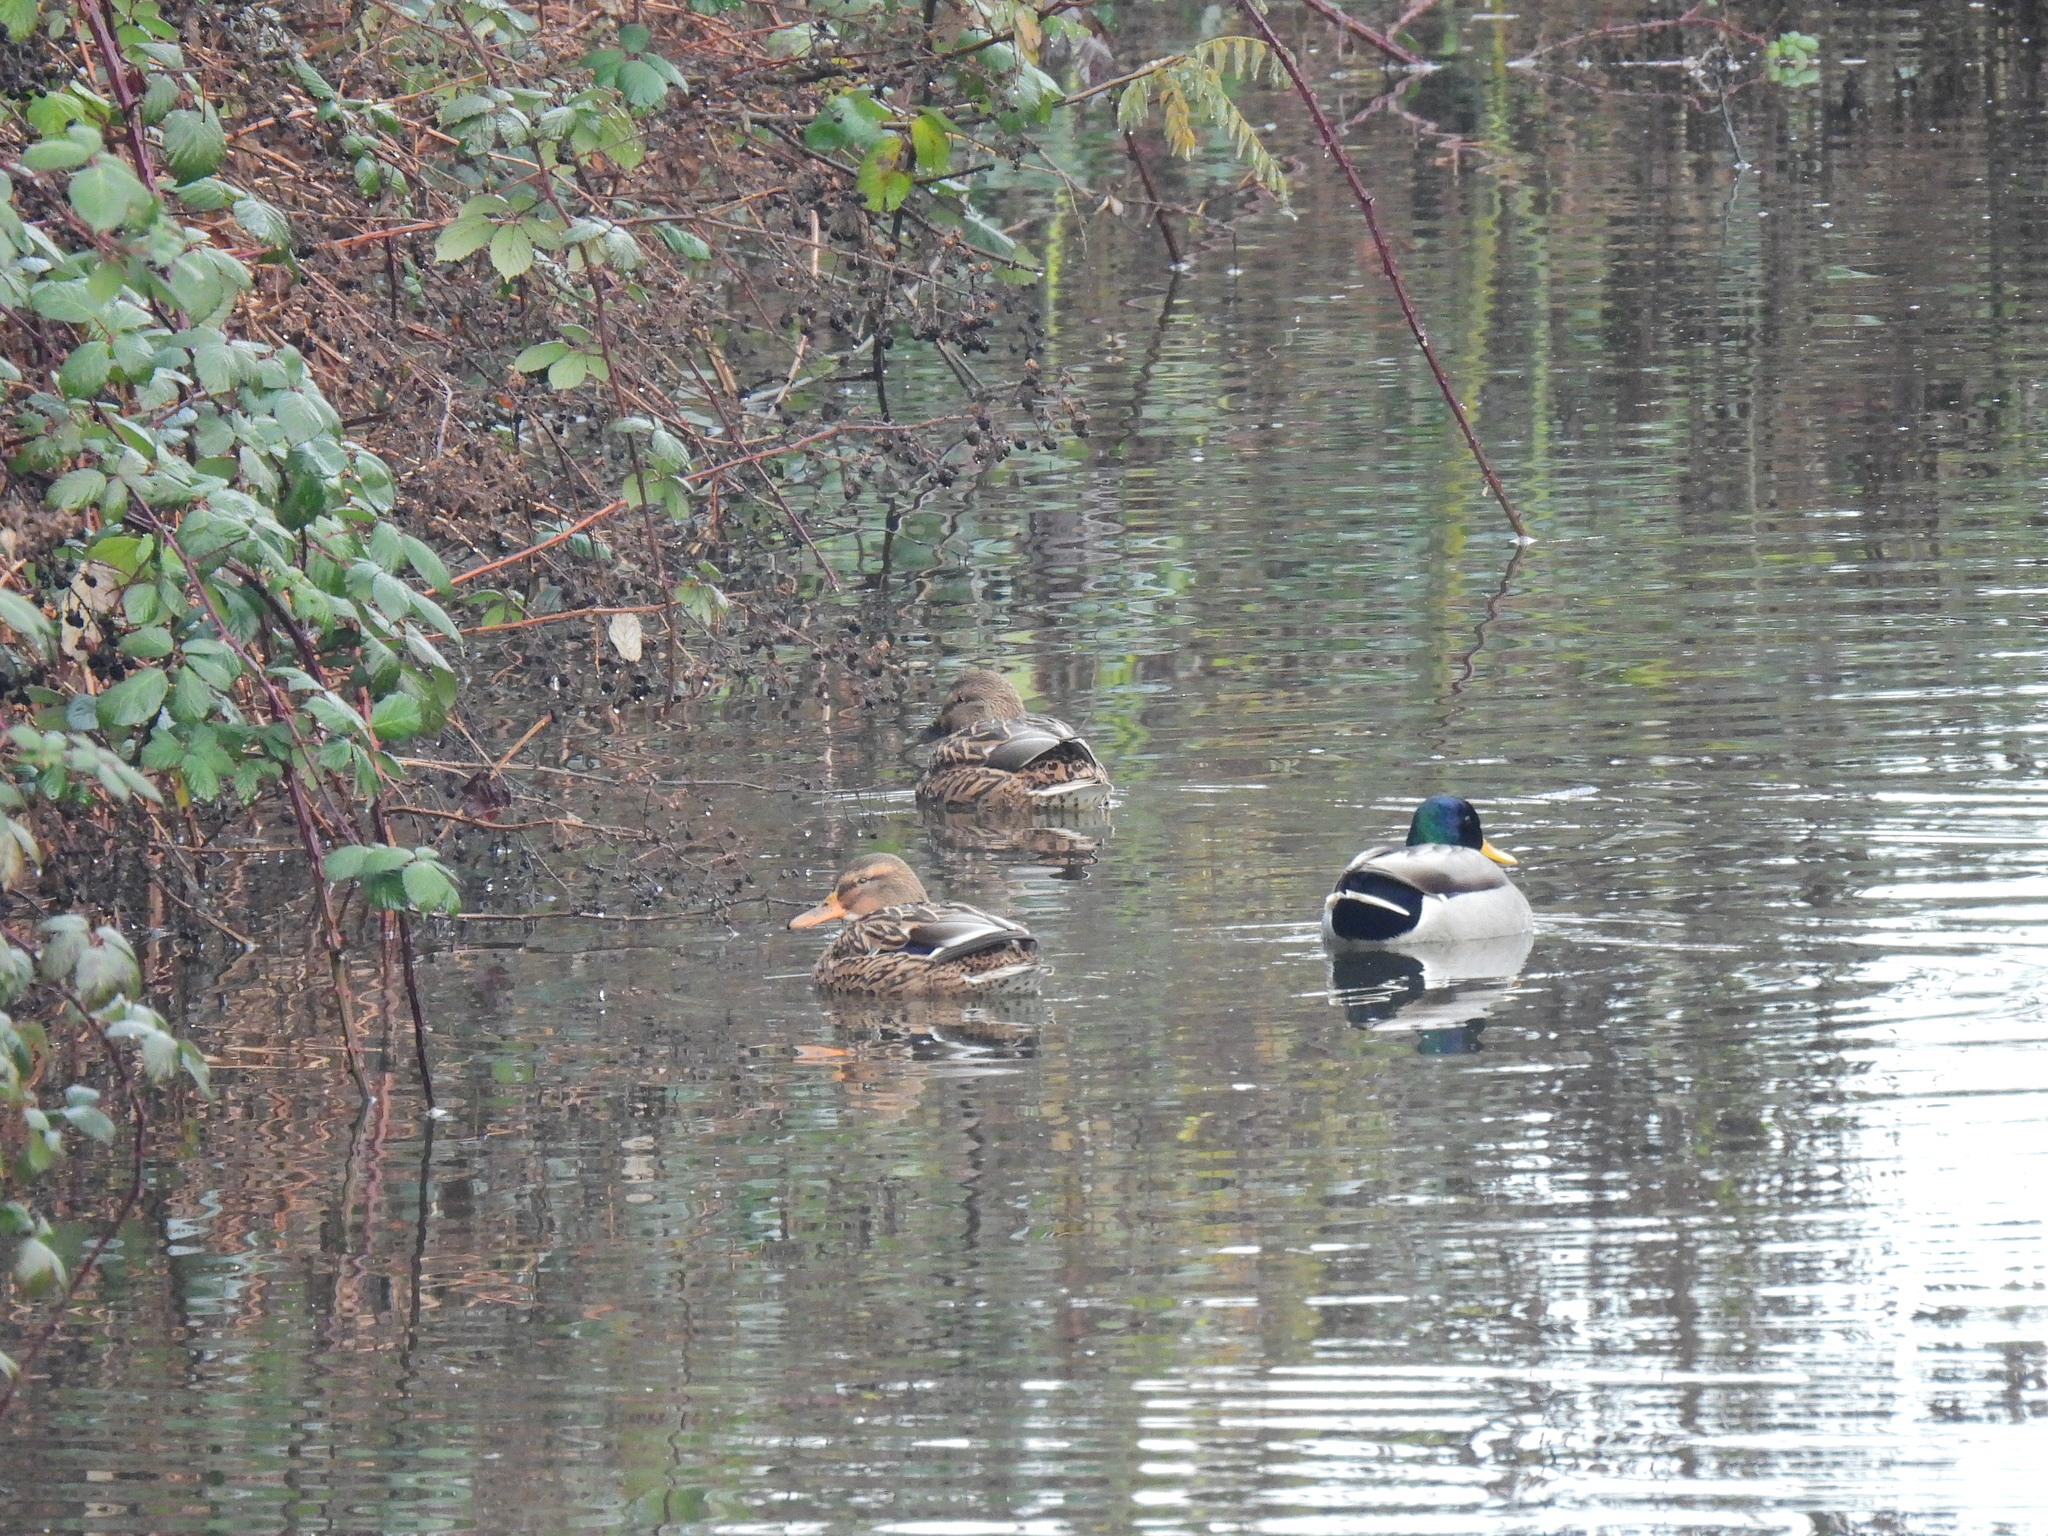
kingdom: Animalia
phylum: Chordata
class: Aves
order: Anseriformes
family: Anatidae
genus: Anas
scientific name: Anas platyrhynchos
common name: Mallard
